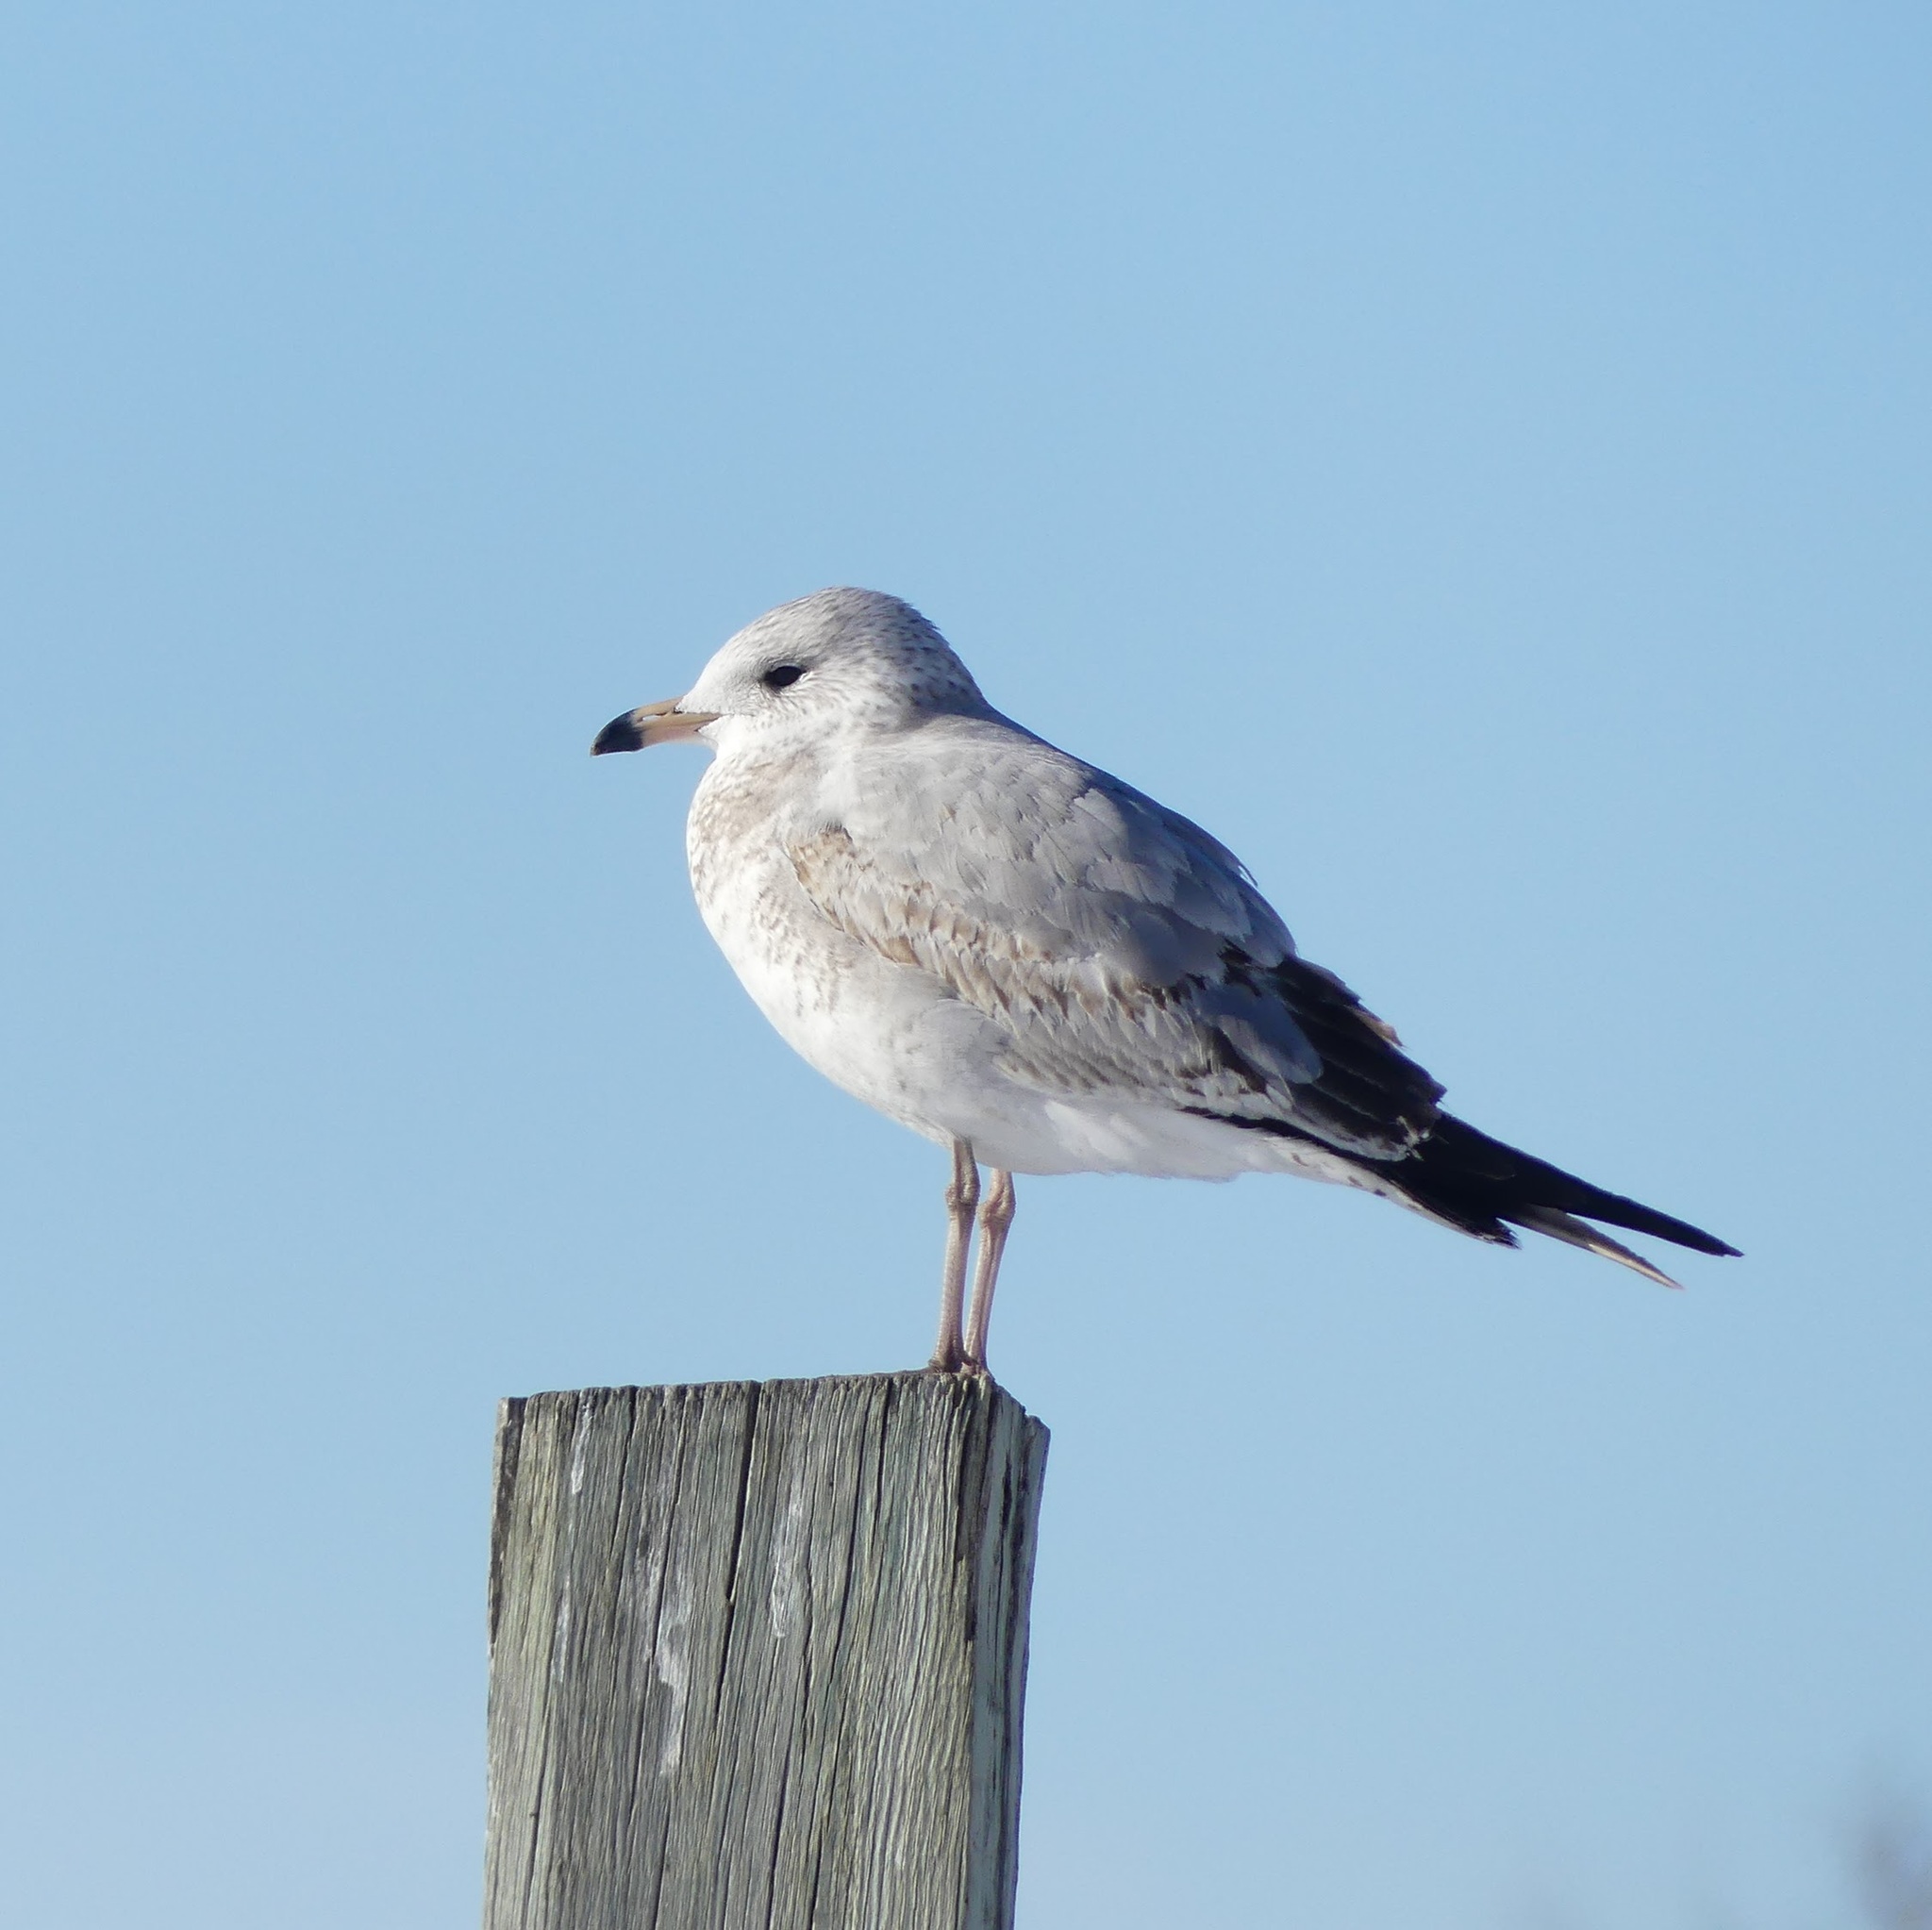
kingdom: Animalia
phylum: Chordata
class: Aves
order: Charadriiformes
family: Laridae
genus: Larus
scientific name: Larus delawarensis
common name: Ring-billed gull
